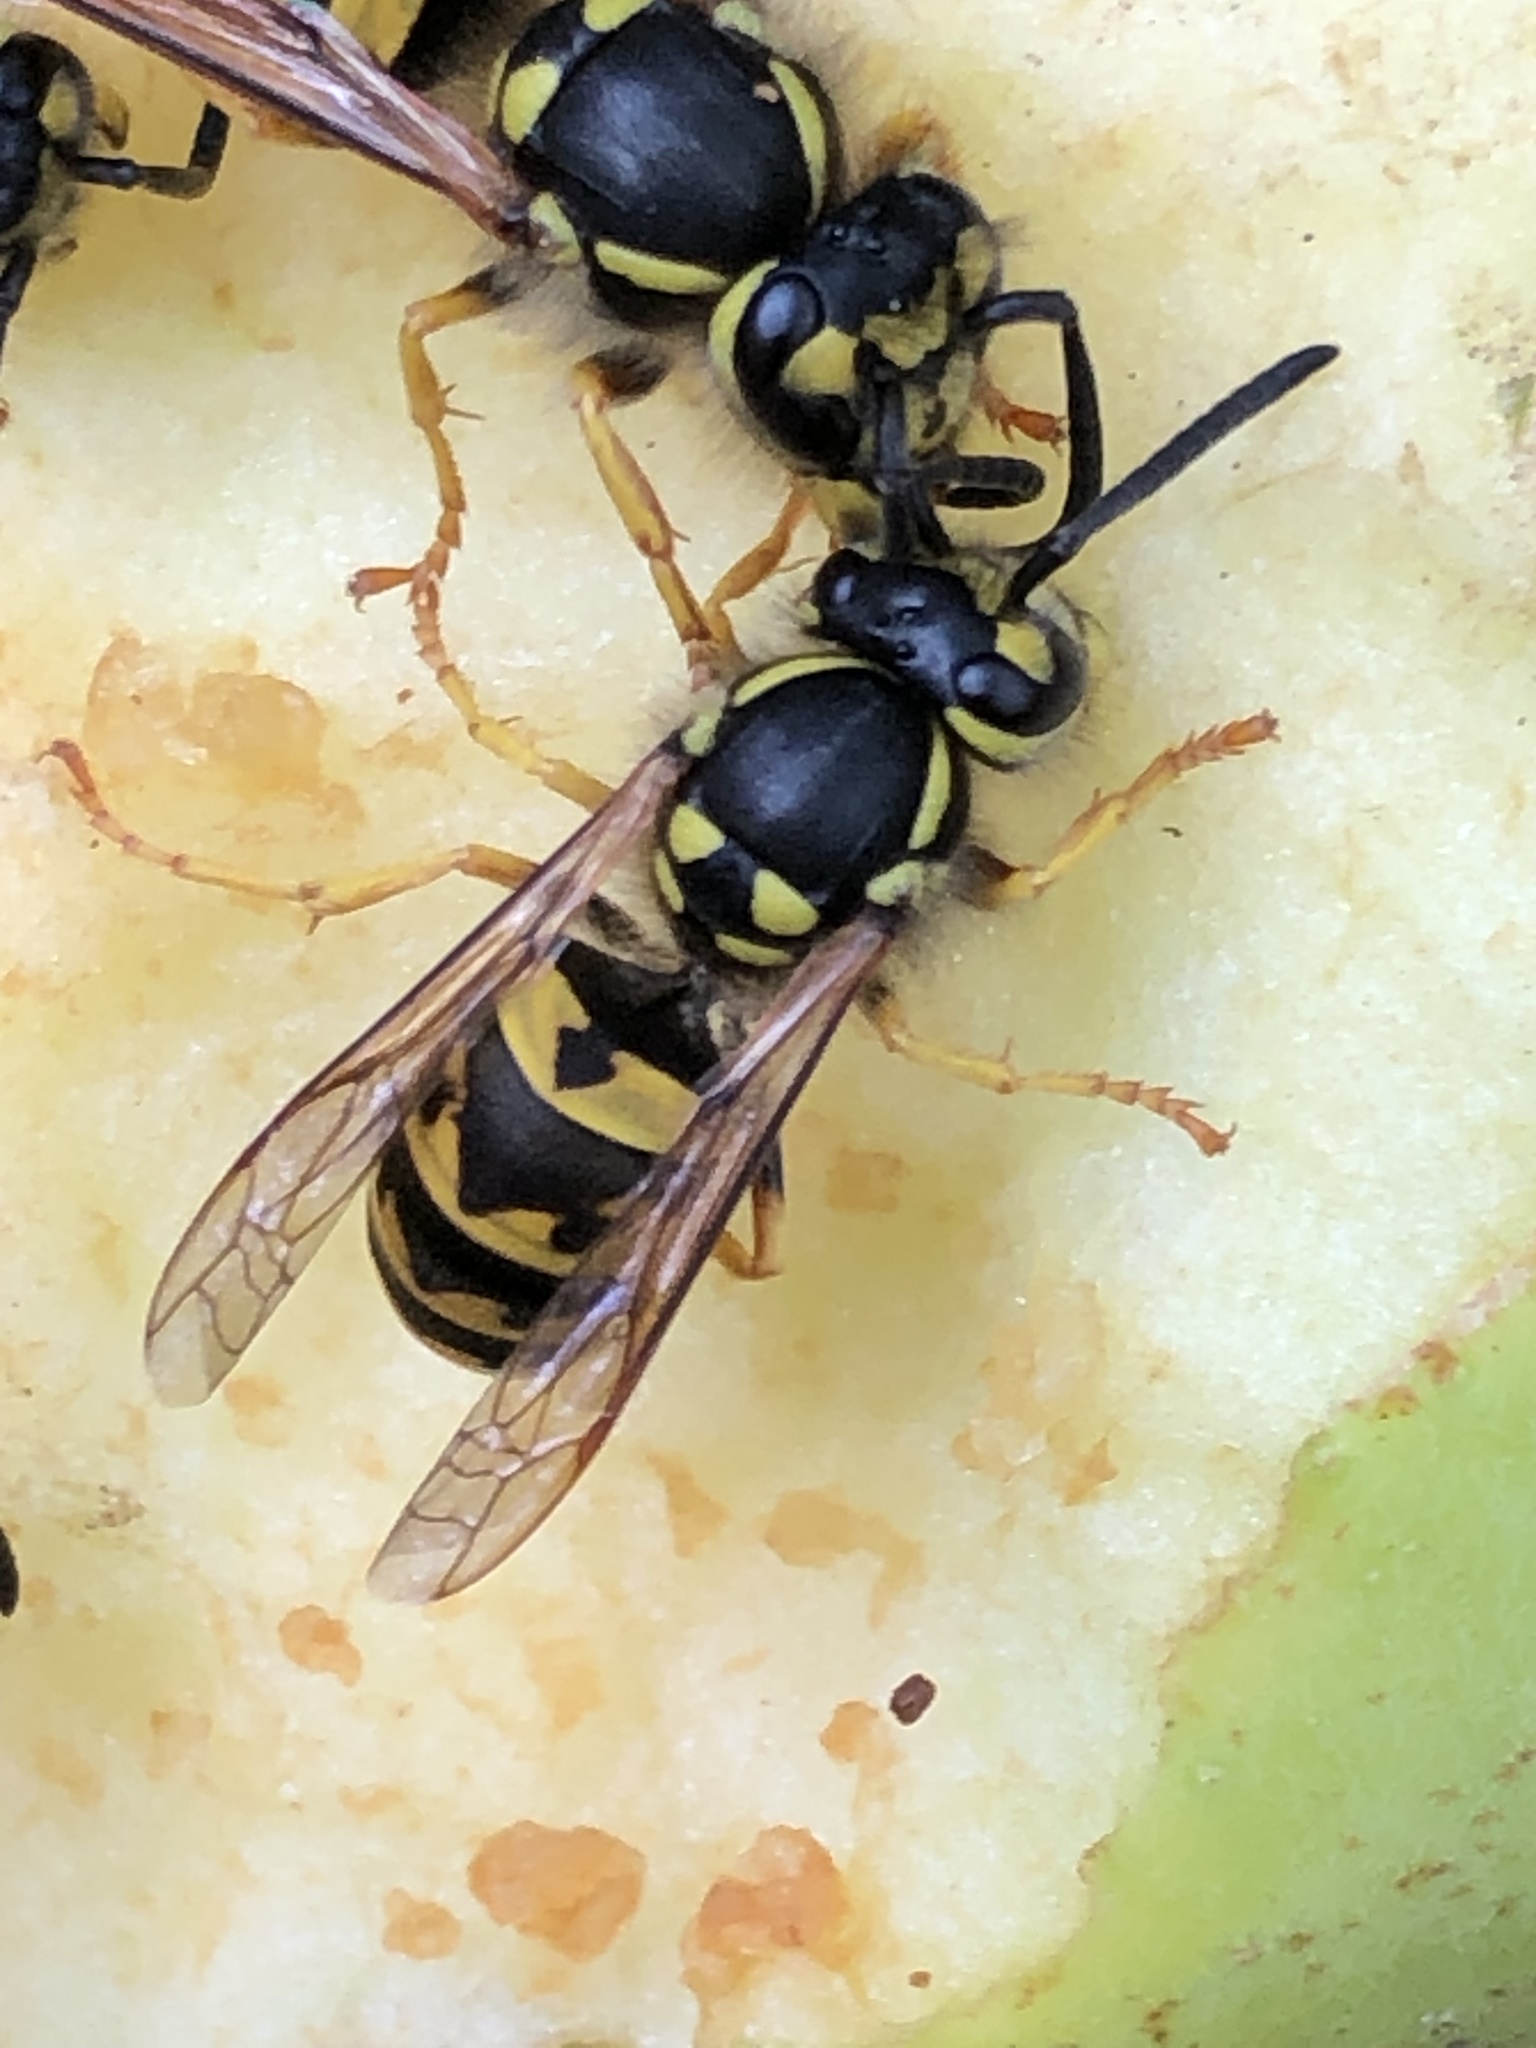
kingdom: Animalia
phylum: Arthropoda
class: Insecta
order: Hymenoptera
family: Vespidae
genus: Vespula
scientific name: Vespula germanica
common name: German wasp
